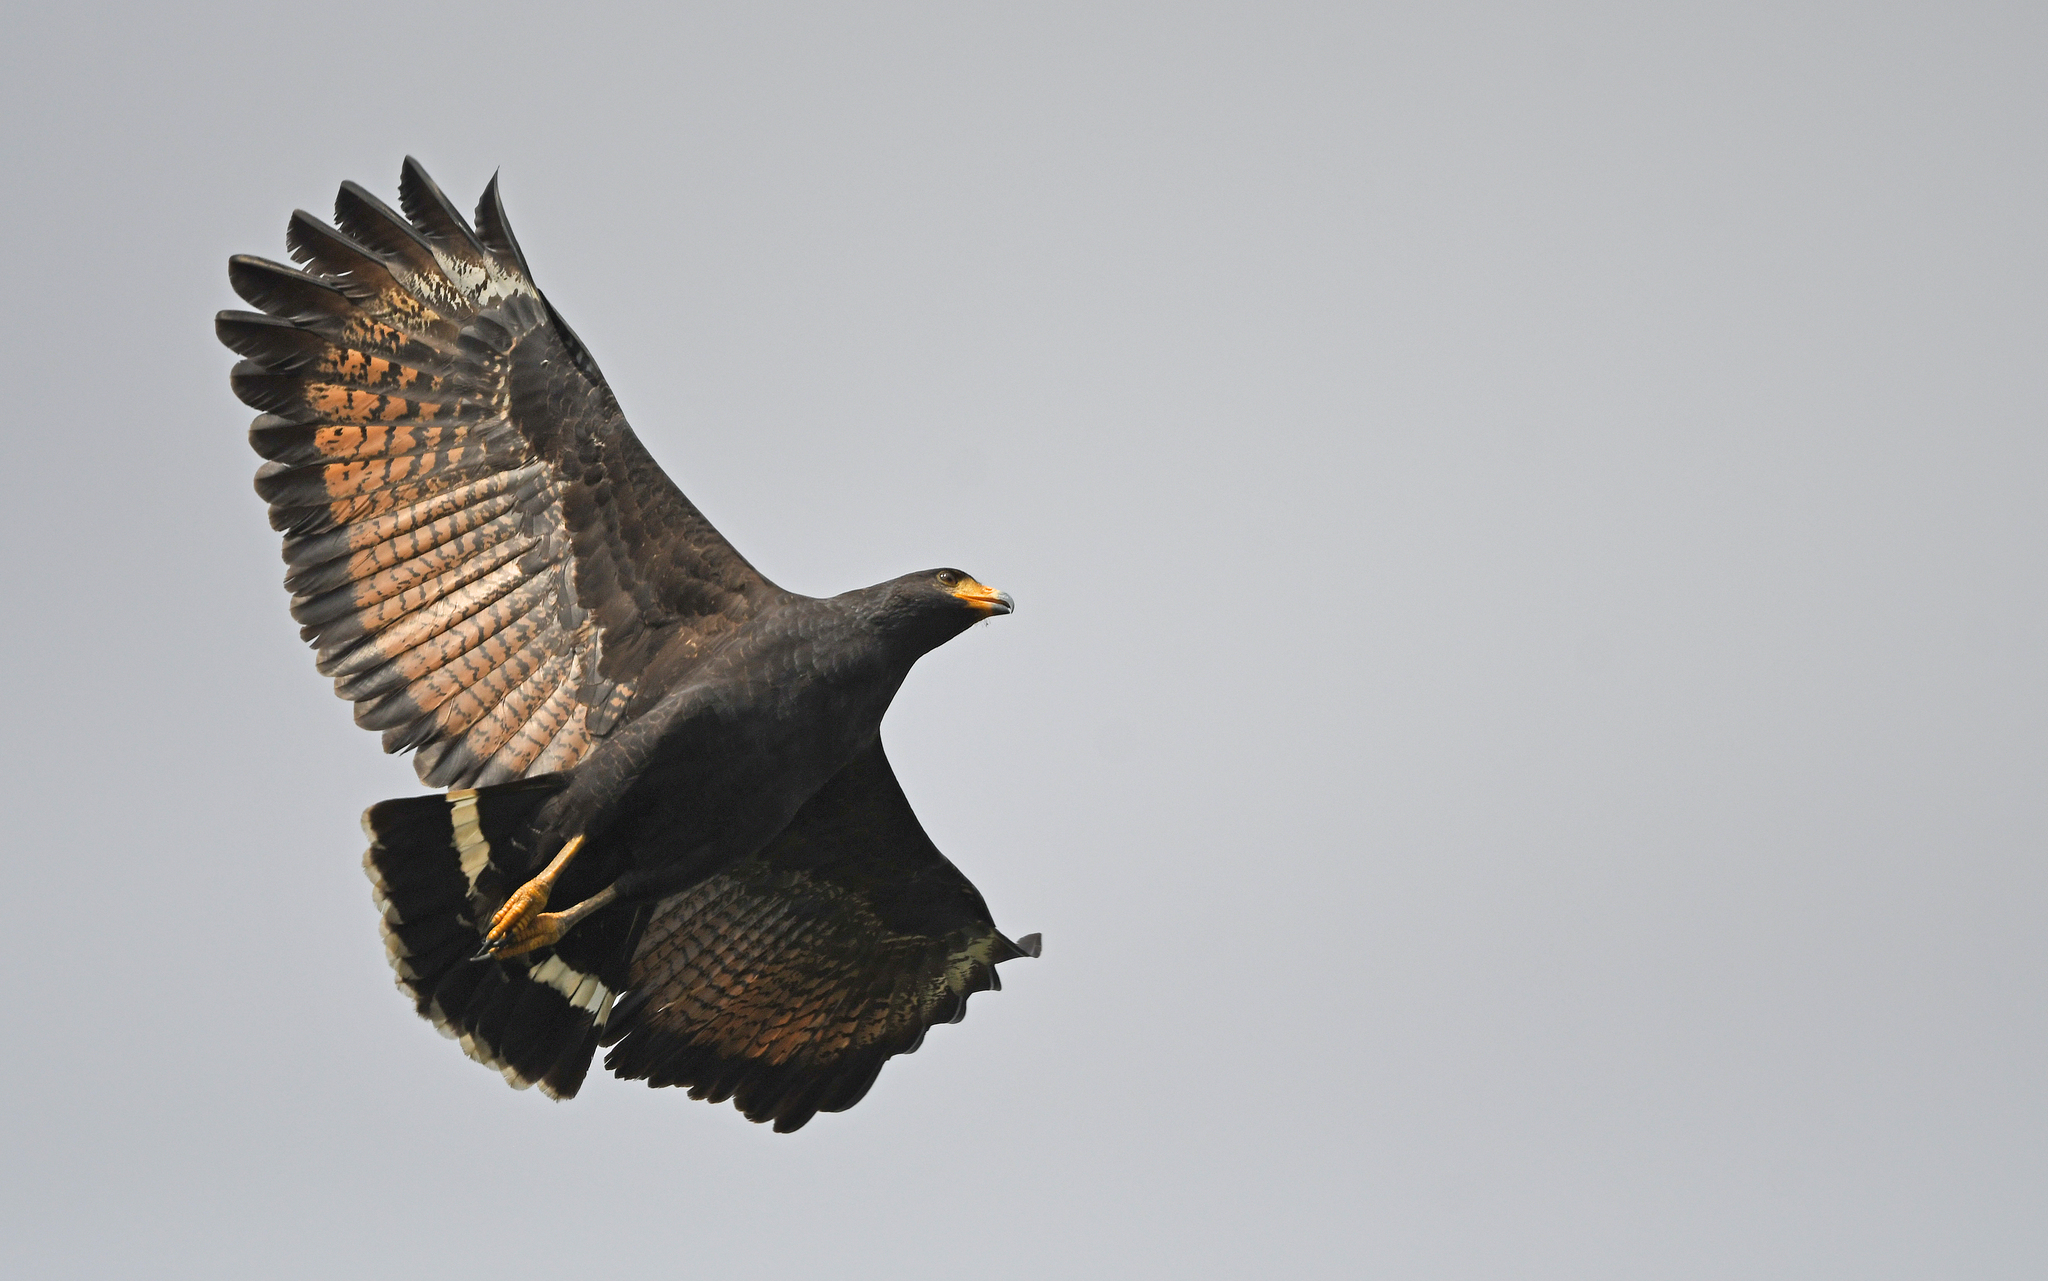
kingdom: Animalia
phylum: Chordata
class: Aves
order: Accipitriformes
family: Accipitridae
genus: Buteogallus
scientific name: Buteogallus anthracinus
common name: Common black hawk
